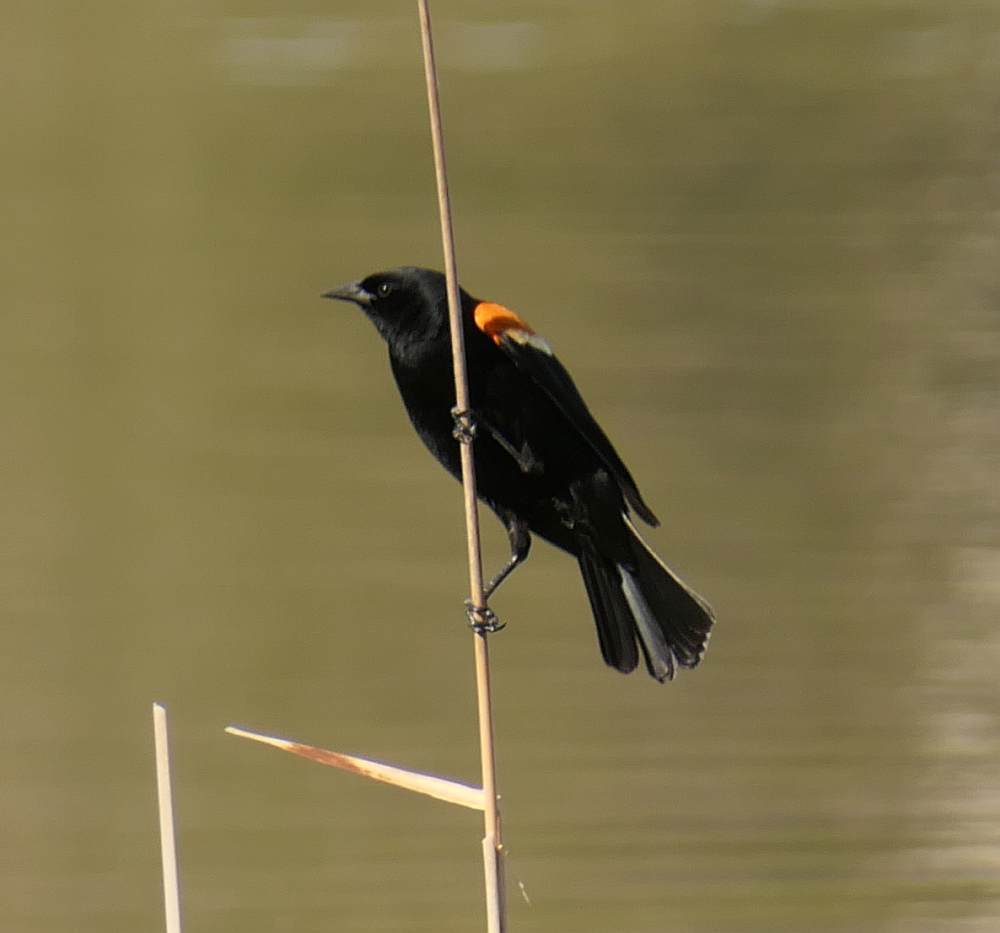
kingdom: Animalia
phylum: Chordata
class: Aves
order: Passeriformes
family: Icteridae
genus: Agelaius
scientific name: Agelaius phoeniceus
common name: Red-winged blackbird
